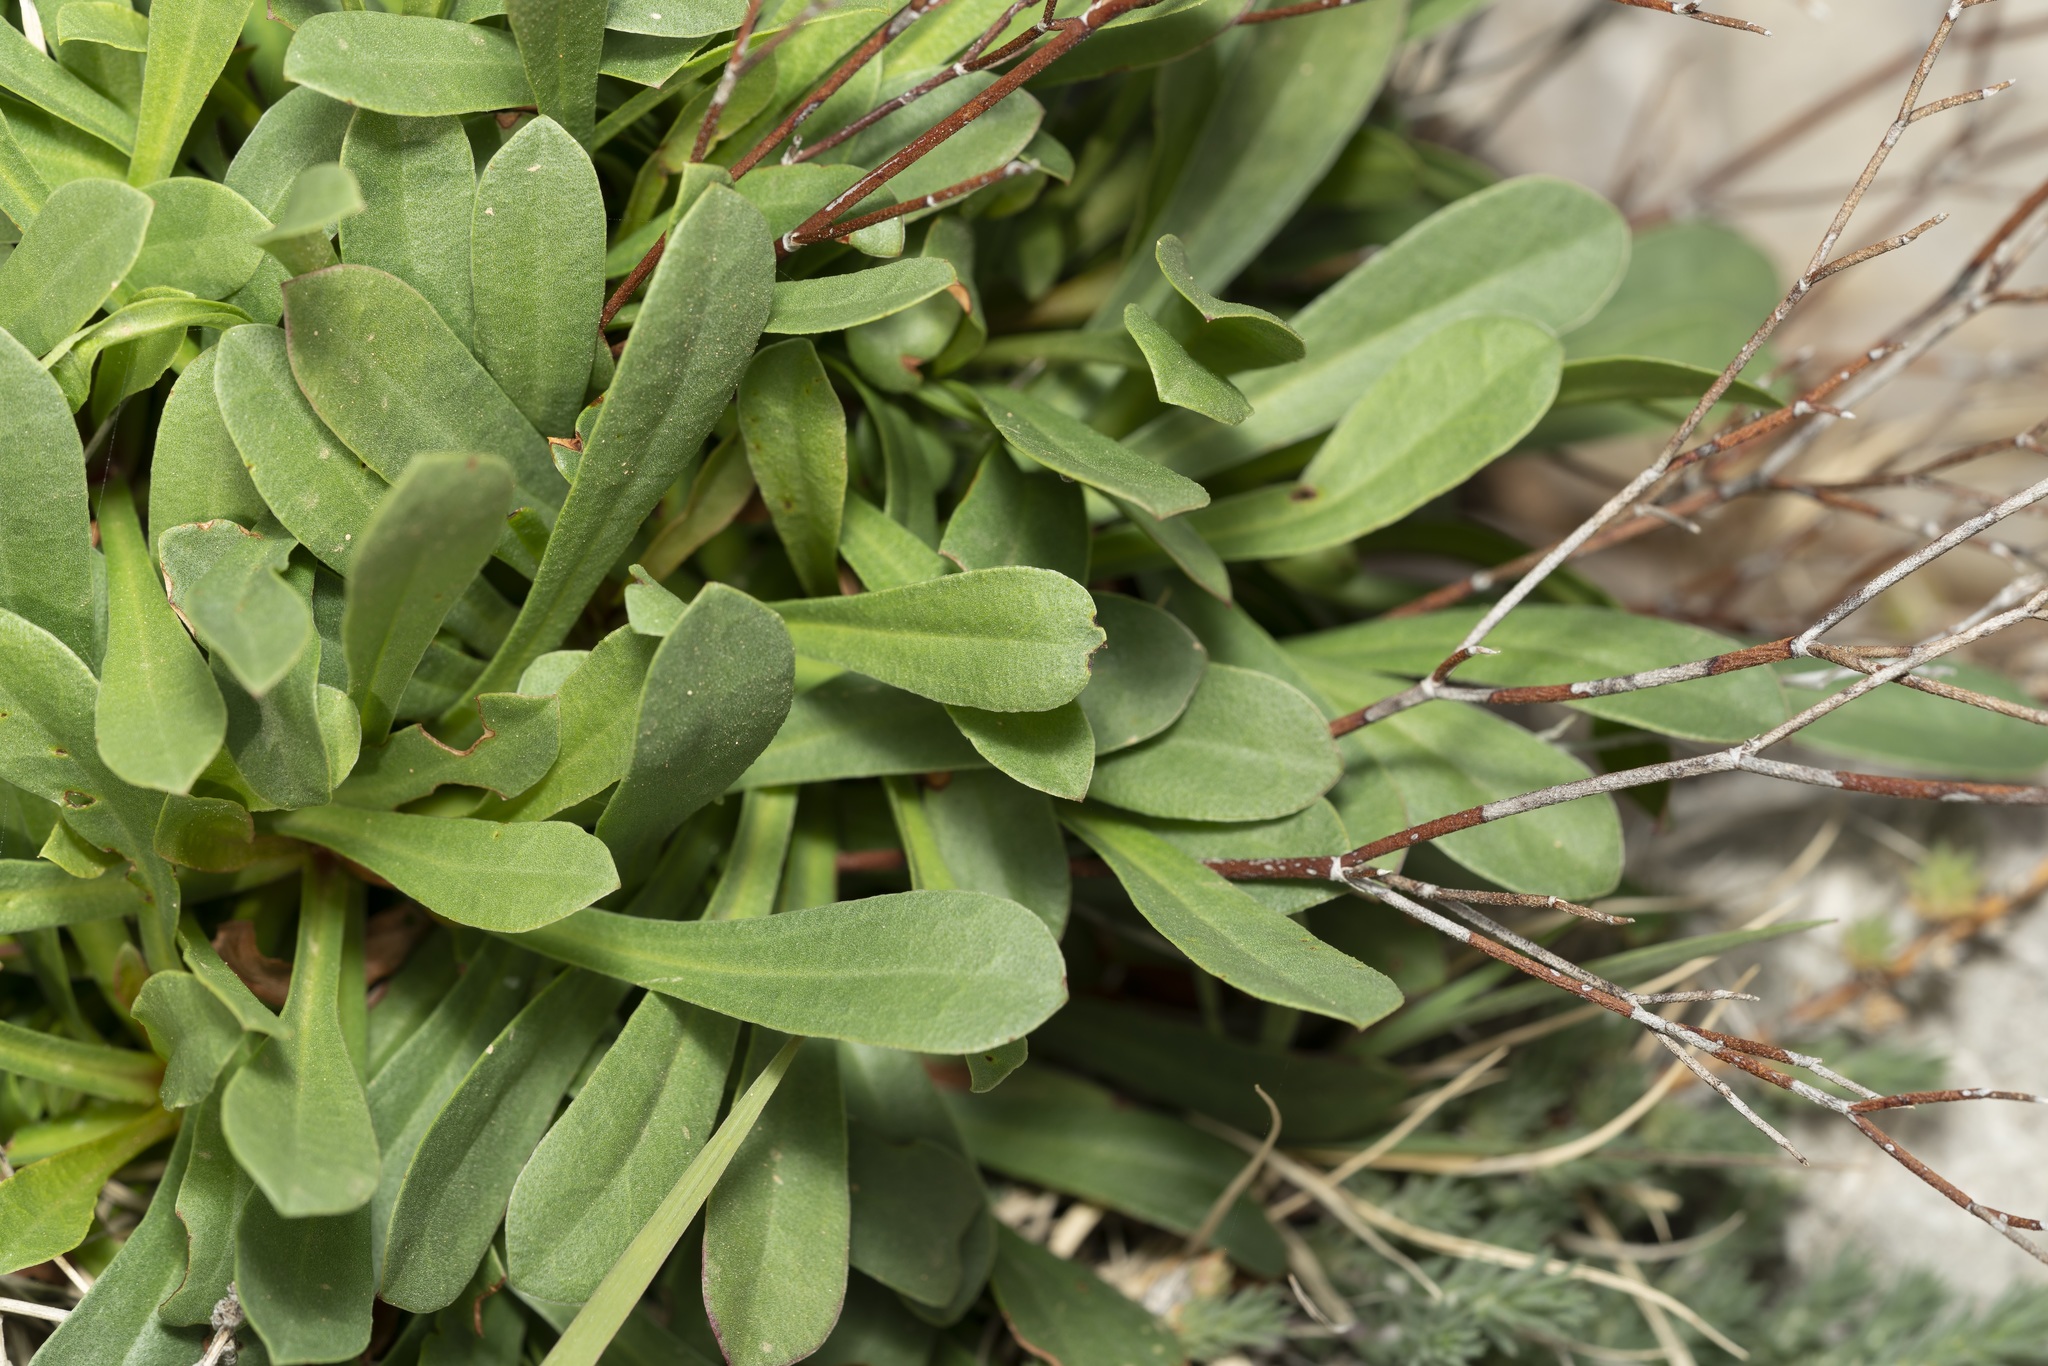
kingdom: Plantae
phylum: Tracheophyta
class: Magnoliopsida
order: Caryophyllales
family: Plumbaginaceae
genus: Limonium
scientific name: Limonium virgatum
